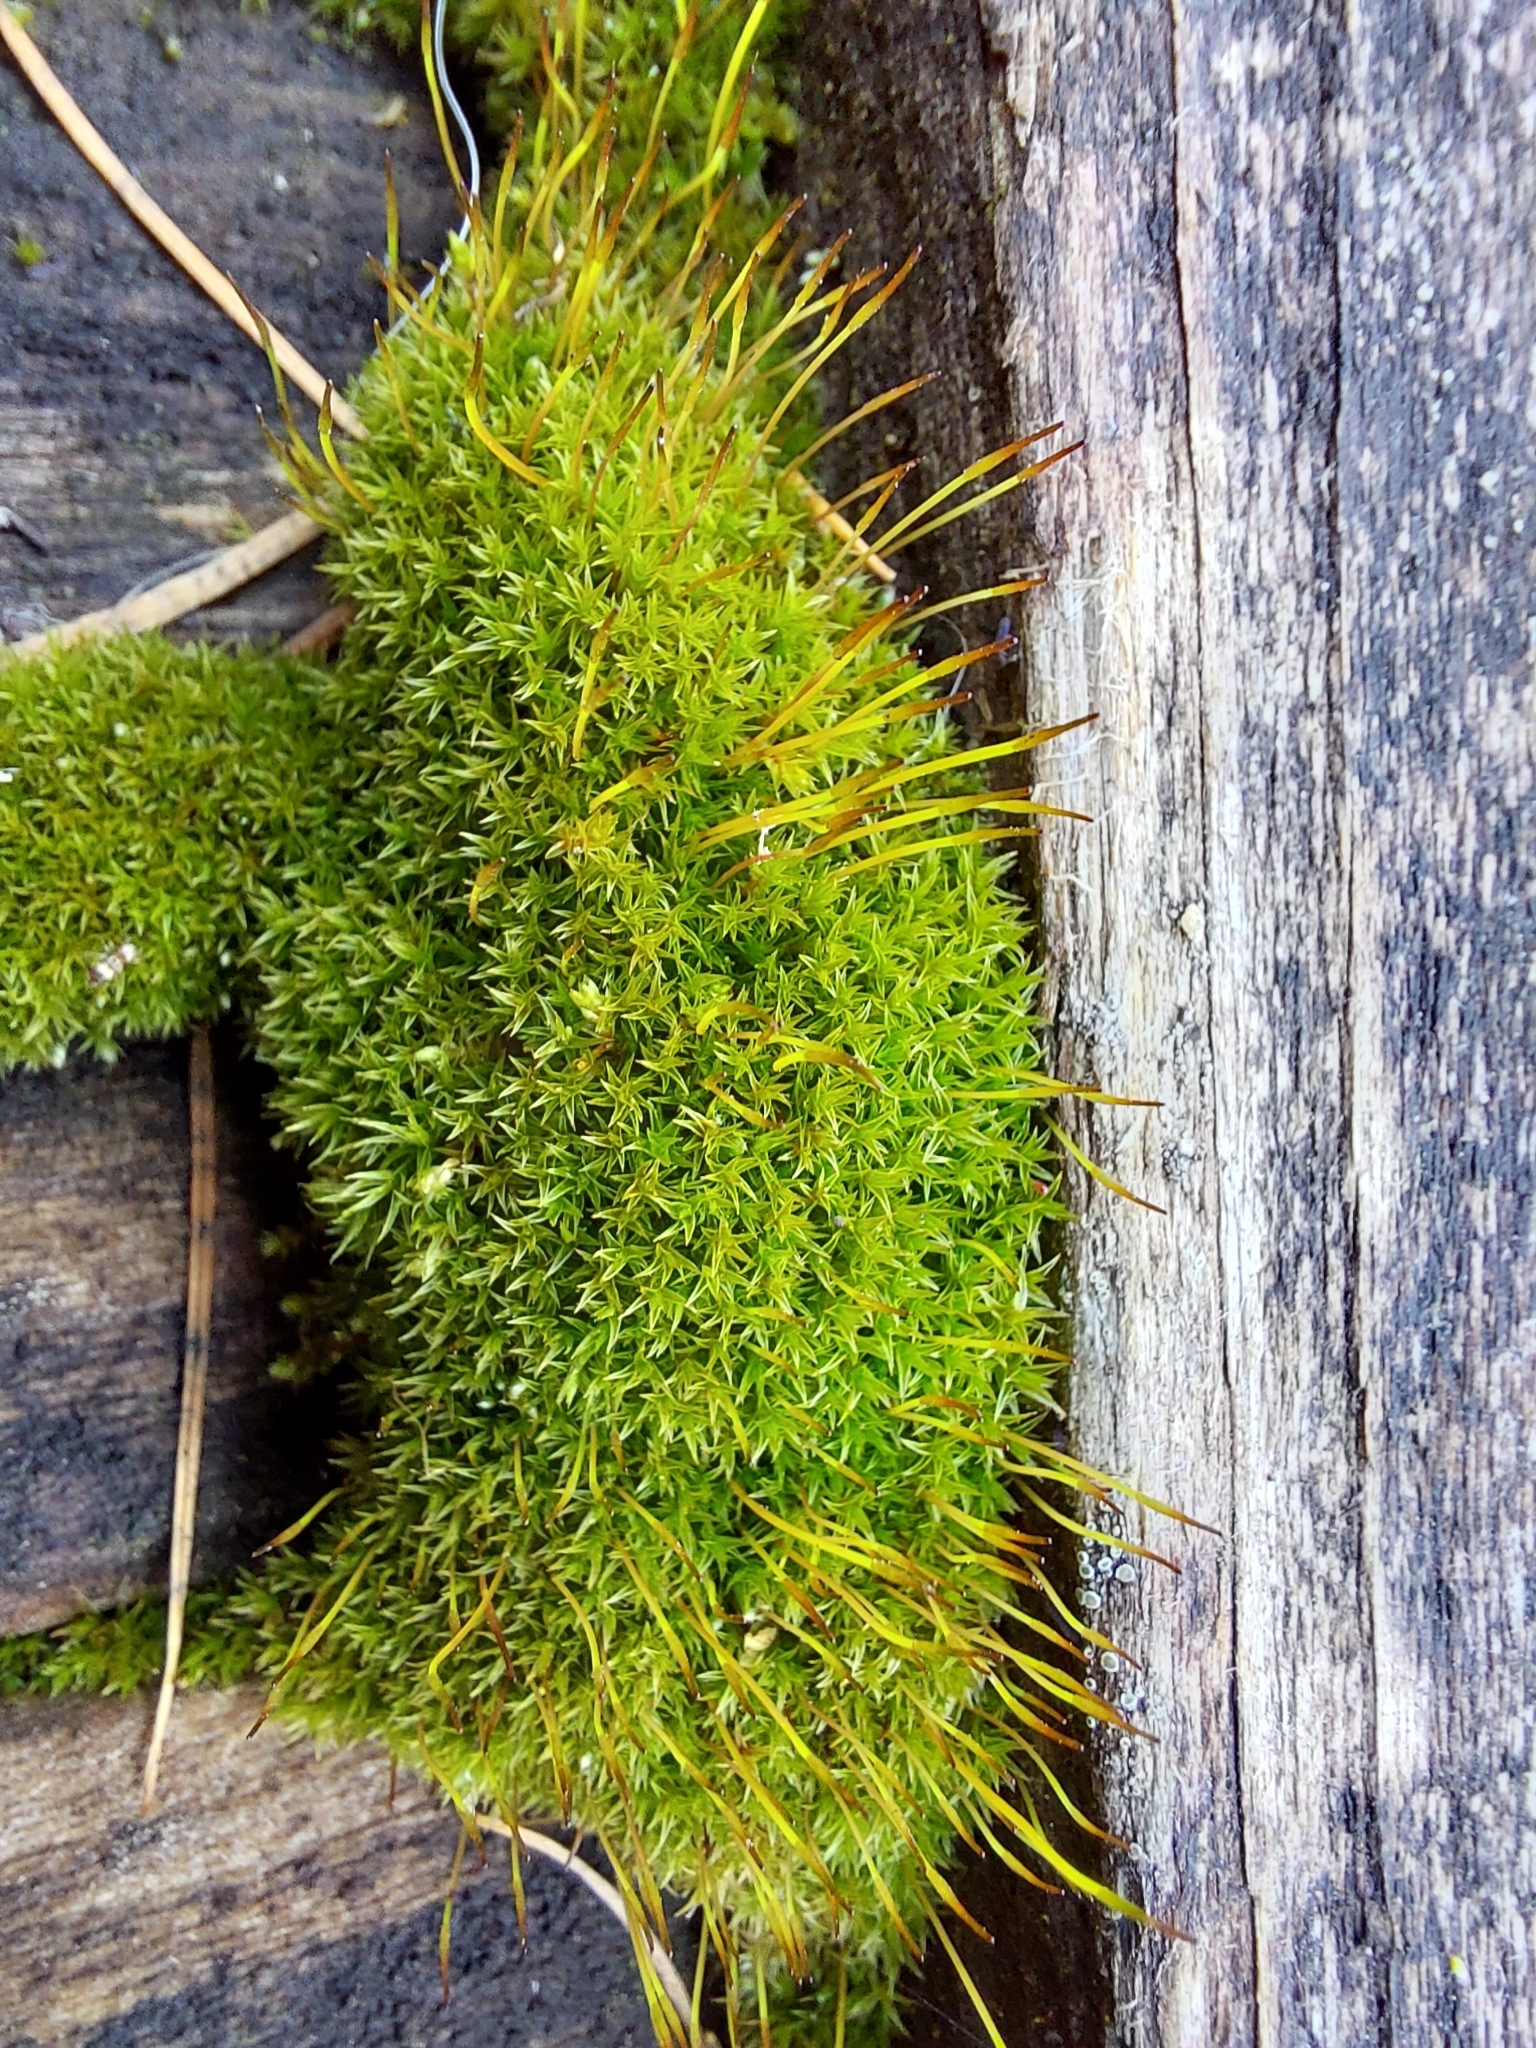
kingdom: Plantae
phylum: Bryophyta
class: Bryopsida
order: Dicranales
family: Ditrichaceae
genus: Ceratodon
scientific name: Ceratodon purpureus
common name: Redshank
